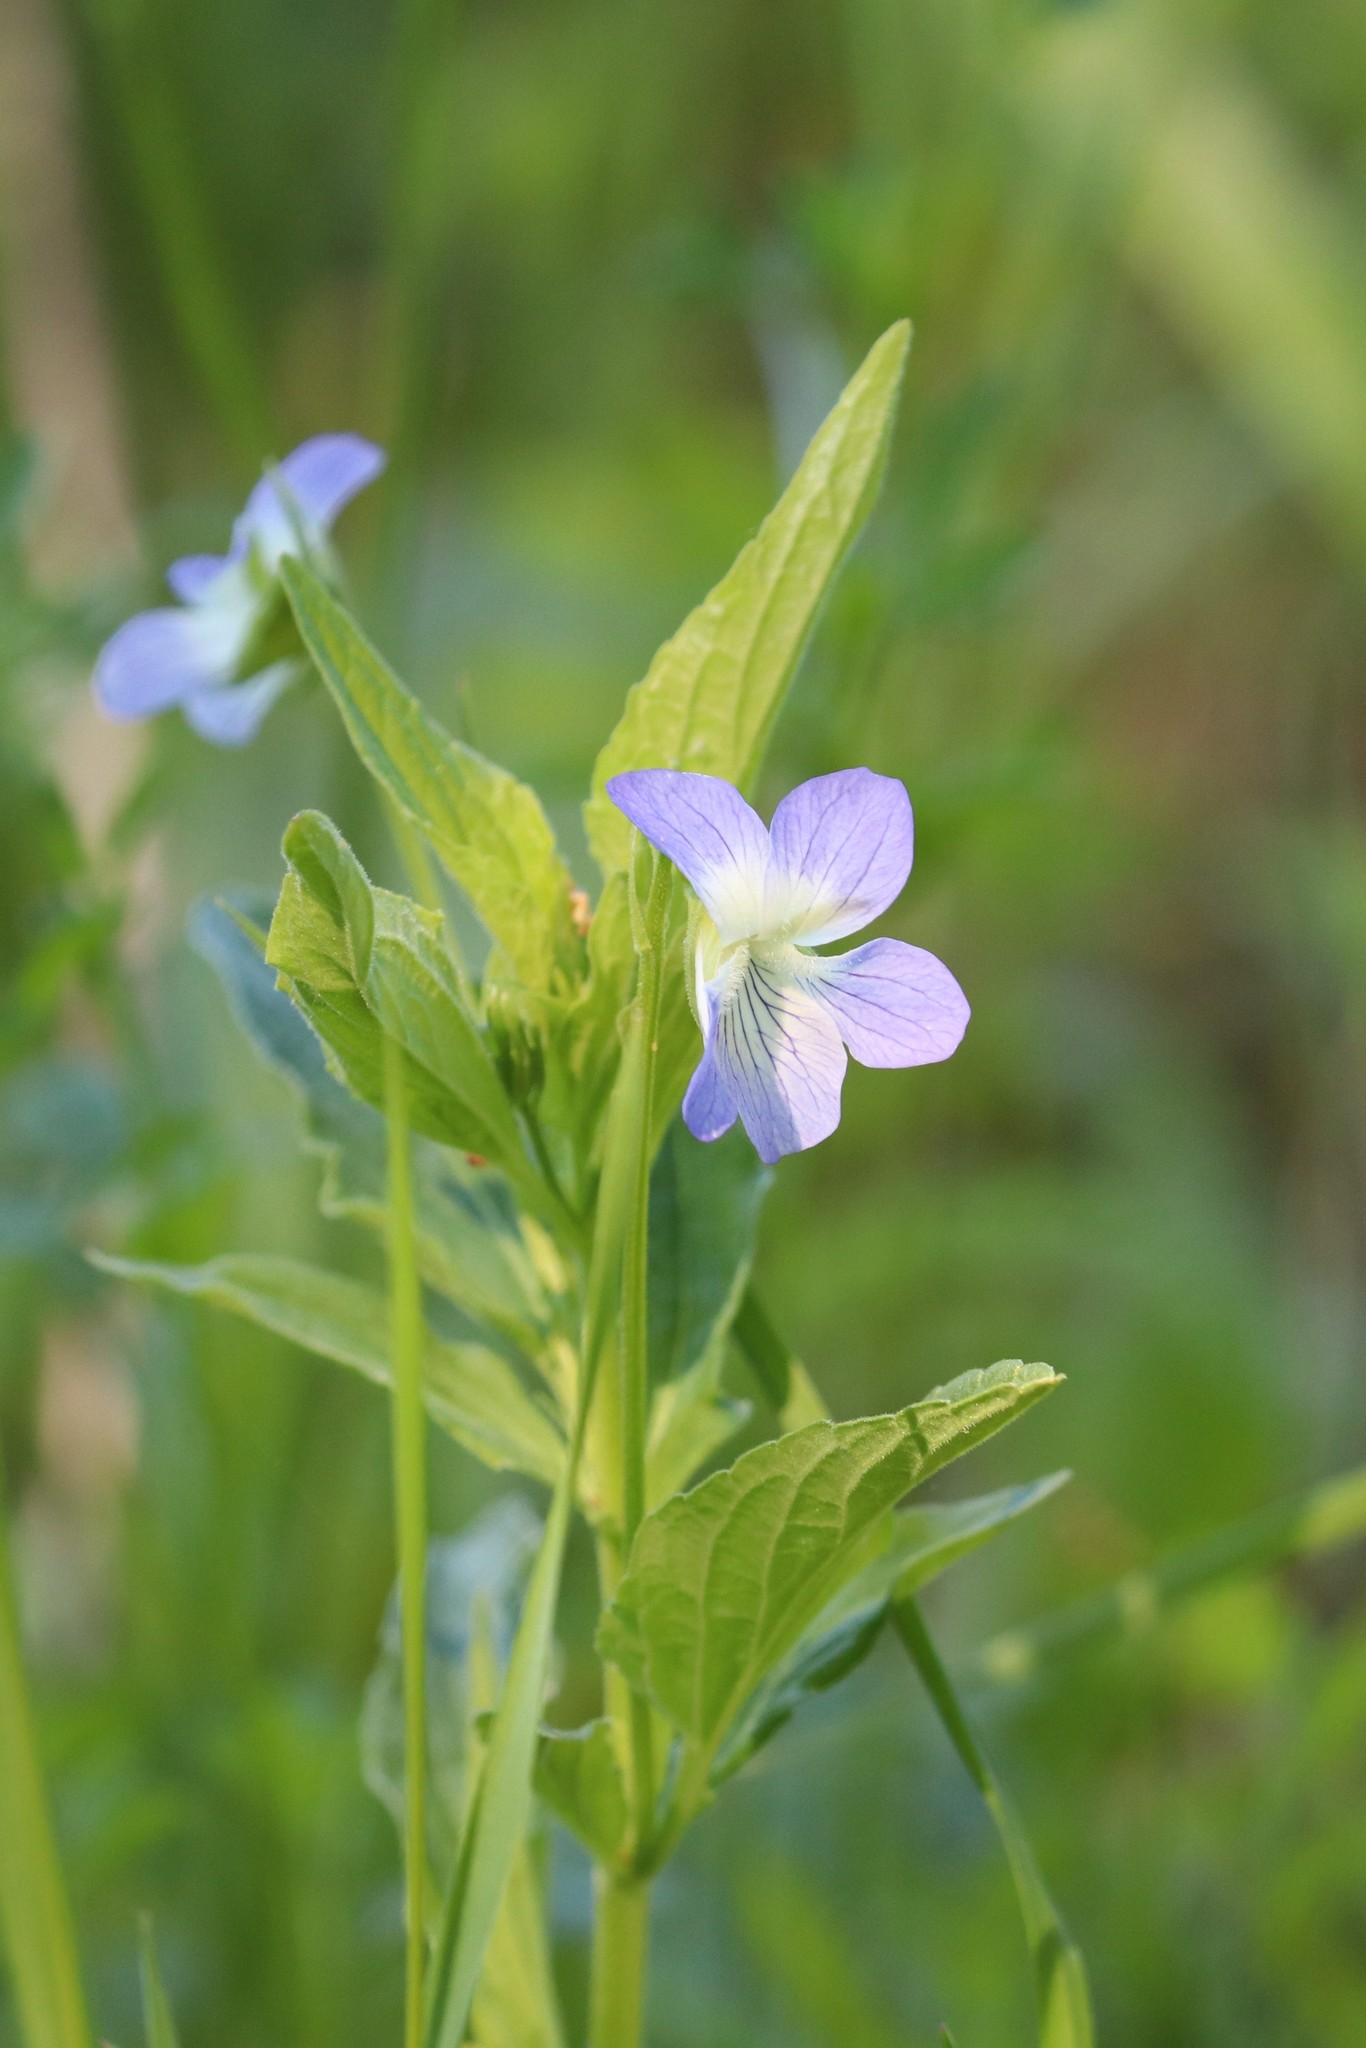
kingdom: Plantae
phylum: Tracheophyta
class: Magnoliopsida
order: Malpighiales
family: Violaceae
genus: Viola
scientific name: Viola elatior
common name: Tall violet
